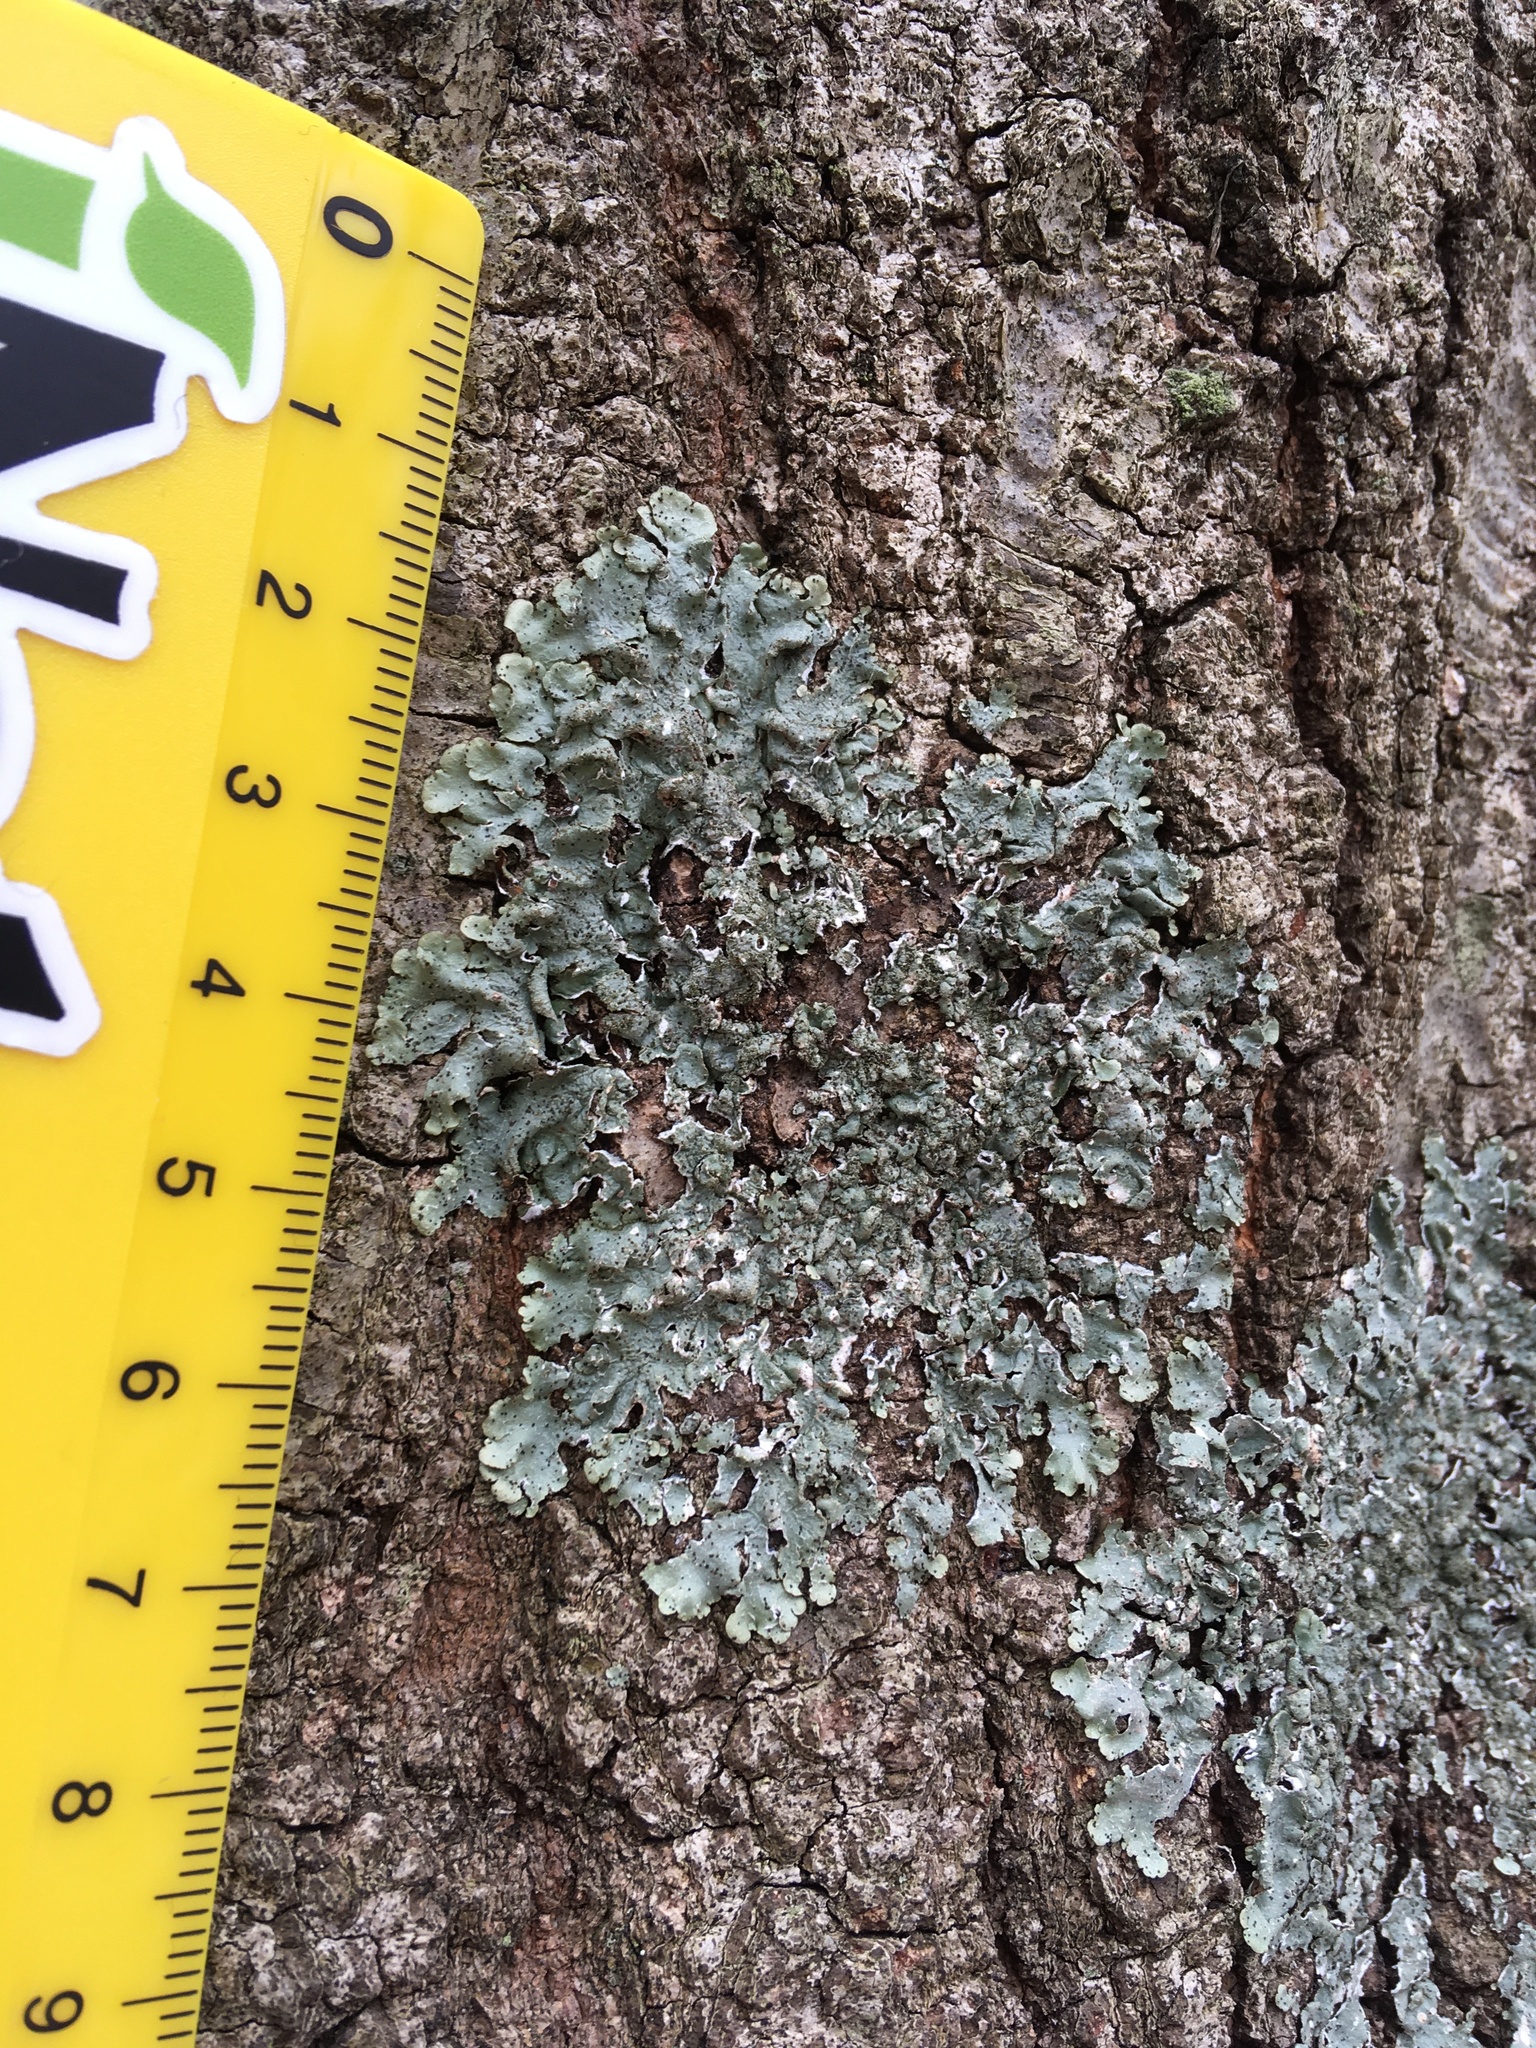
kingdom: Fungi
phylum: Ascomycota
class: Lecanoromycetes
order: Lecanorales
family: Parmeliaceae
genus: Punctelia
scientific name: Punctelia rudecta
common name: Rough speckled shield lichen
